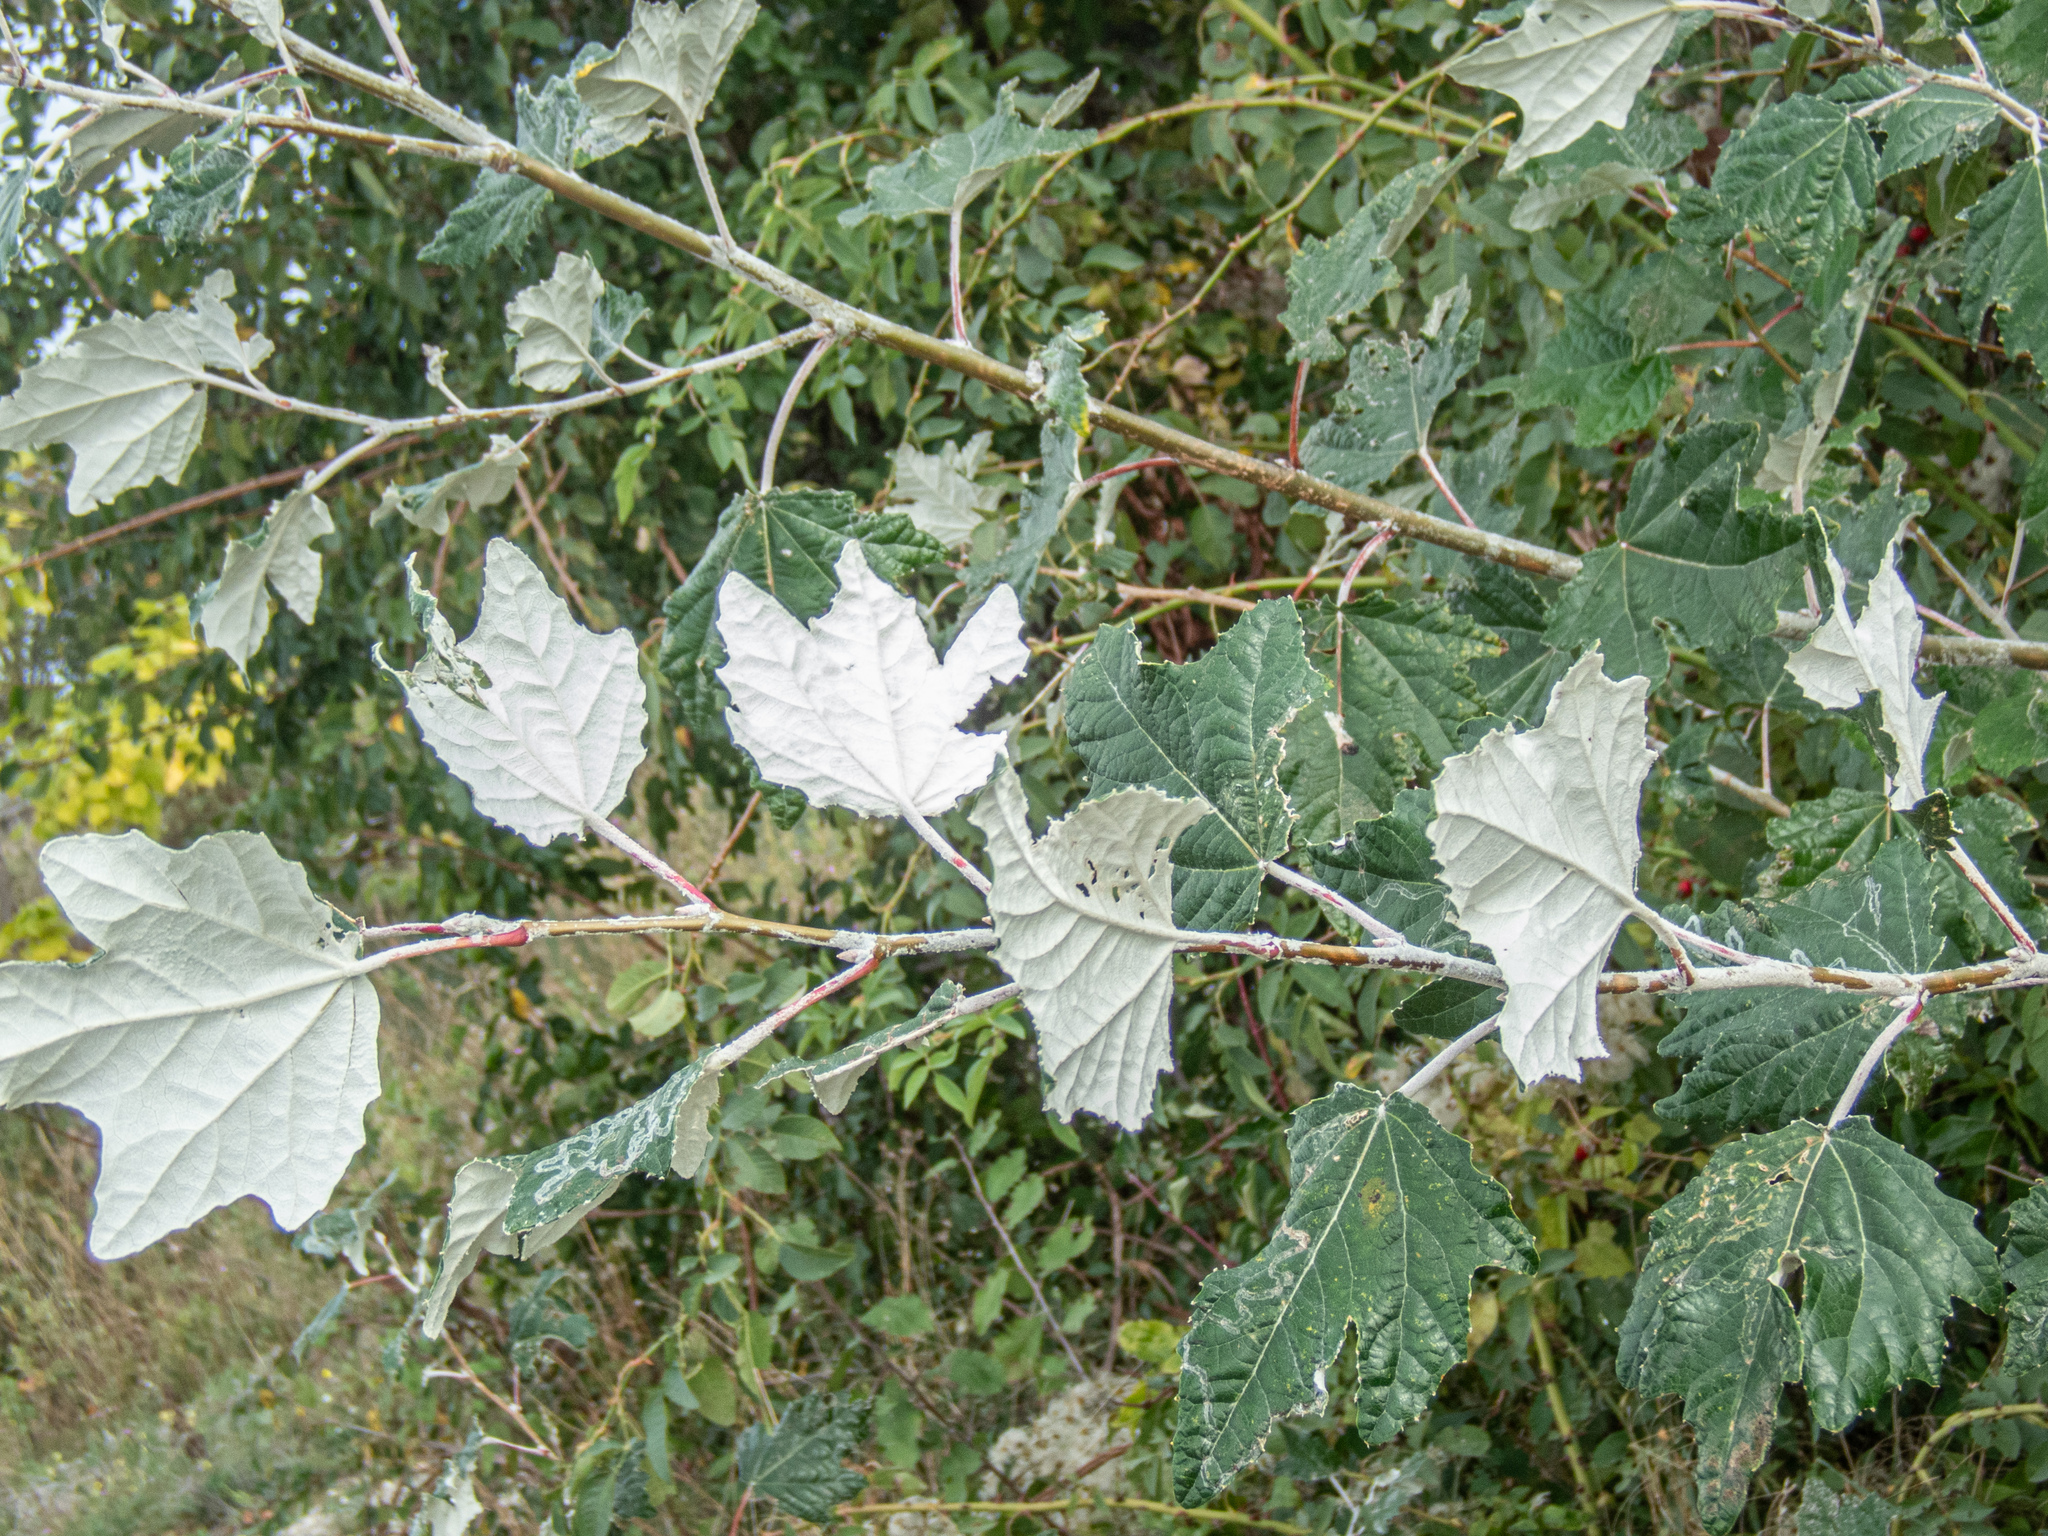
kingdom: Plantae
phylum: Tracheophyta
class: Magnoliopsida
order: Malpighiales
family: Salicaceae
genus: Populus
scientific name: Populus alba
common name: White poplar
